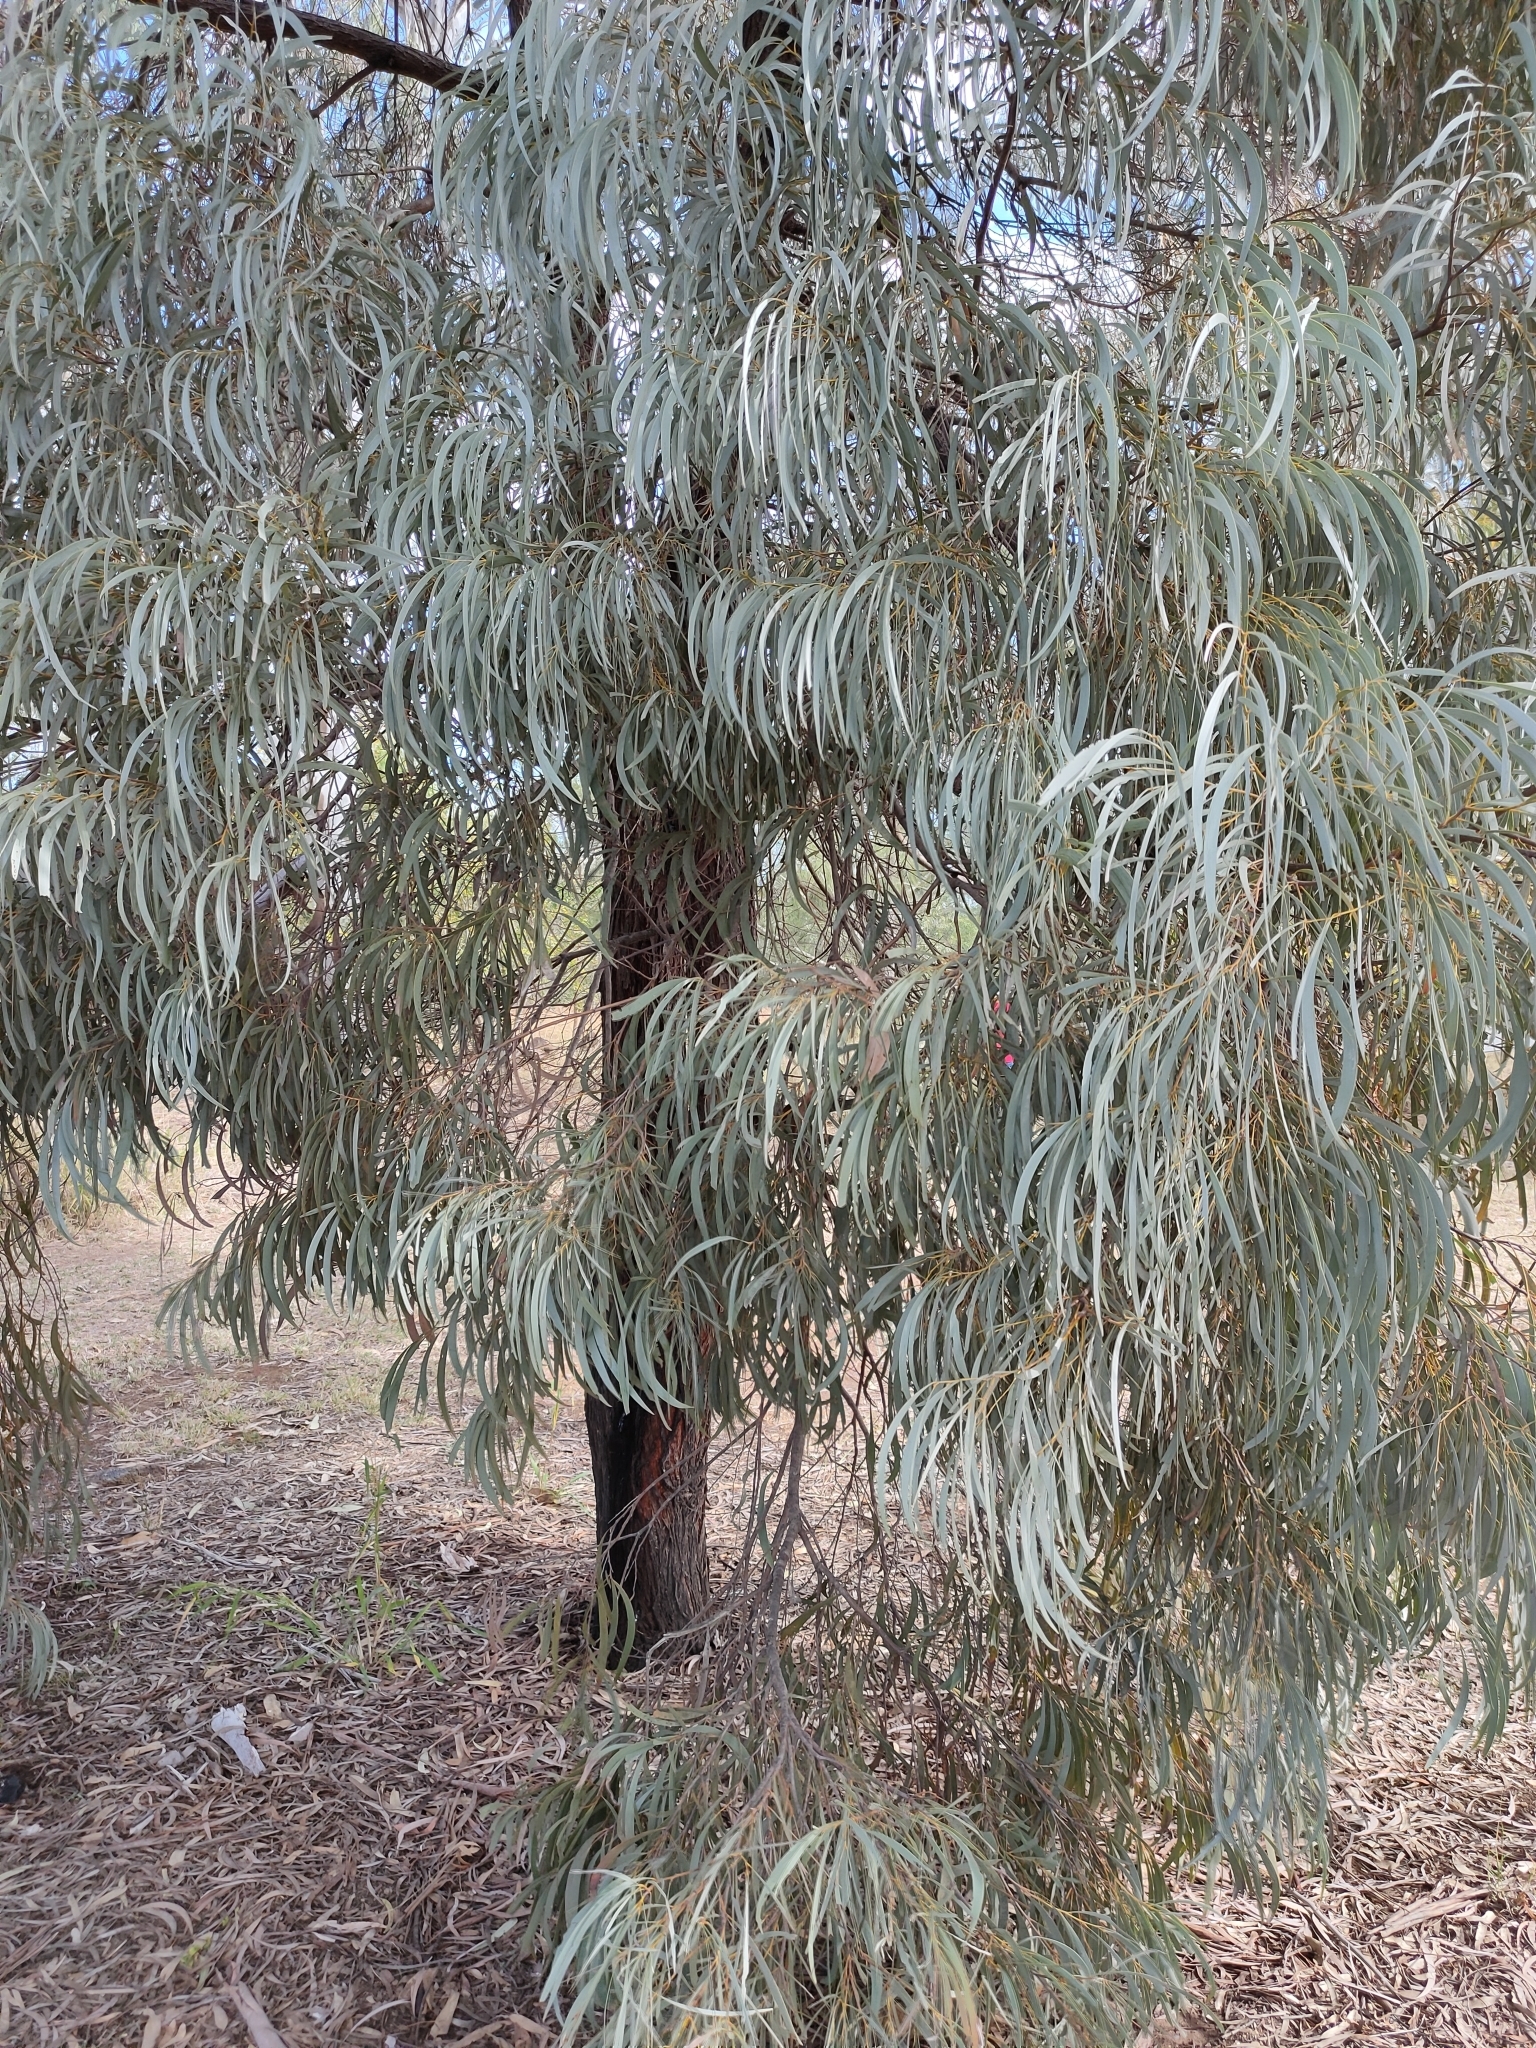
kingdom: Plantae
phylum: Tracheophyta
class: Magnoliopsida
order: Fabales
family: Fabaceae
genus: Acacia
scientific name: Acacia harpophylla
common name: Brigalow
